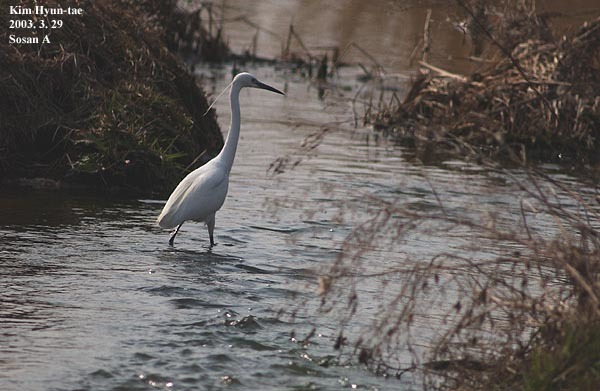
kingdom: Animalia
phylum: Chordata
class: Aves
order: Pelecaniformes
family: Ardeidae
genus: Egretta
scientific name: Egretta garzetta
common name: Little egret
